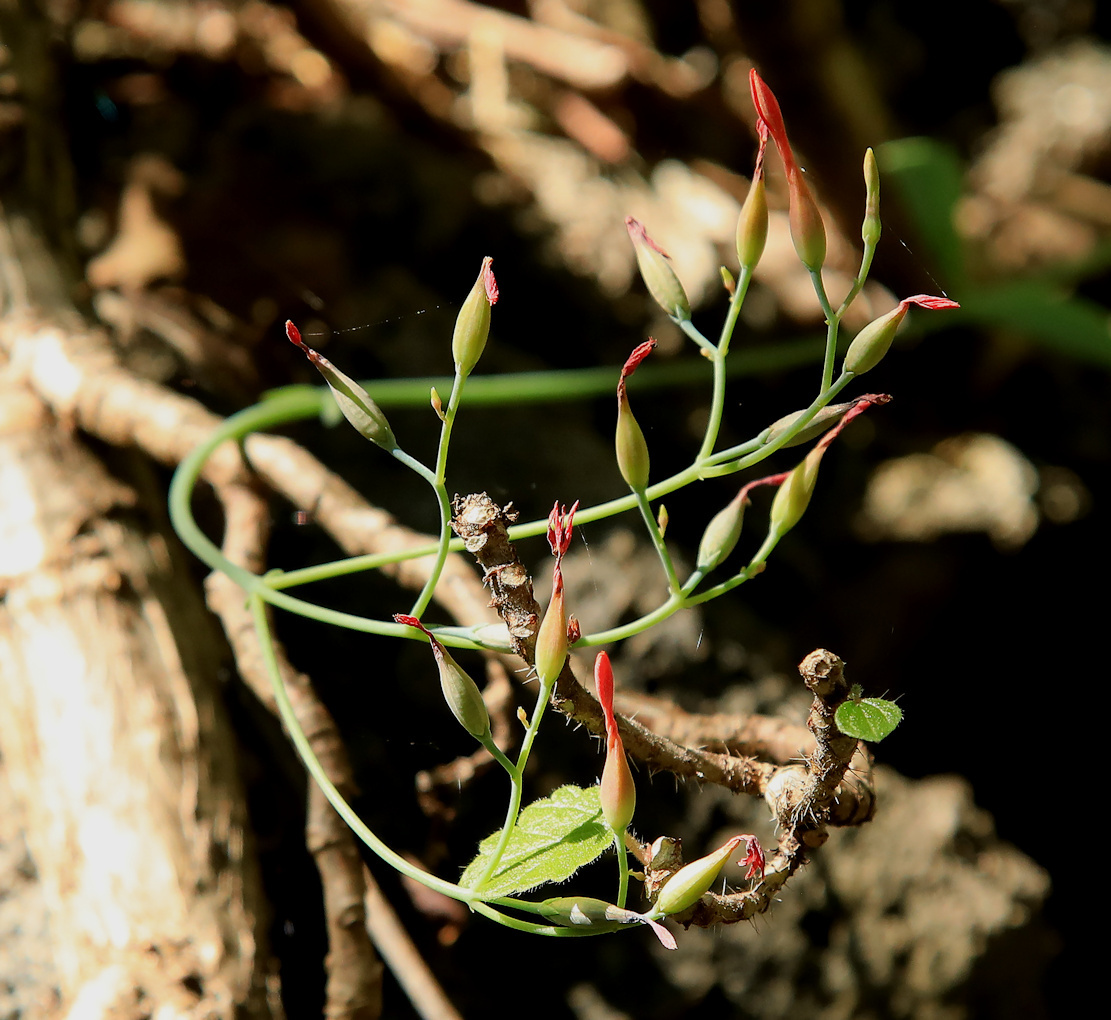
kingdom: Plantae
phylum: Tracheophyta
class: Magnoliopsida
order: Saxifragales
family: Crassulaceae
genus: Kalanchoe
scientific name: Kalanchoe rotundifolia
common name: Common kalanchoe
